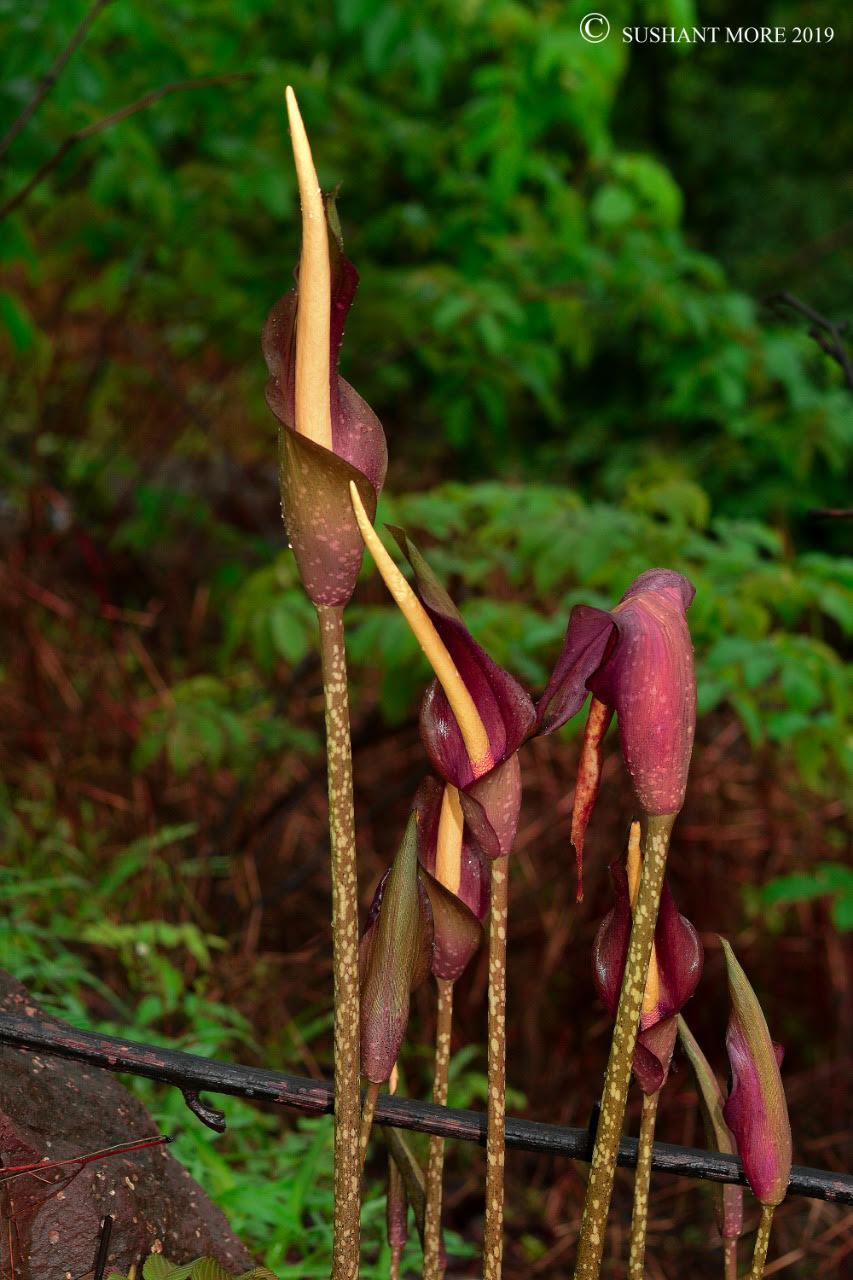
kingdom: Plantae
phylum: Tracheophyta
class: Liliopsida
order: Alismatales
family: Araceae
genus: Amorphophallus
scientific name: Amorphophallus commutatus
